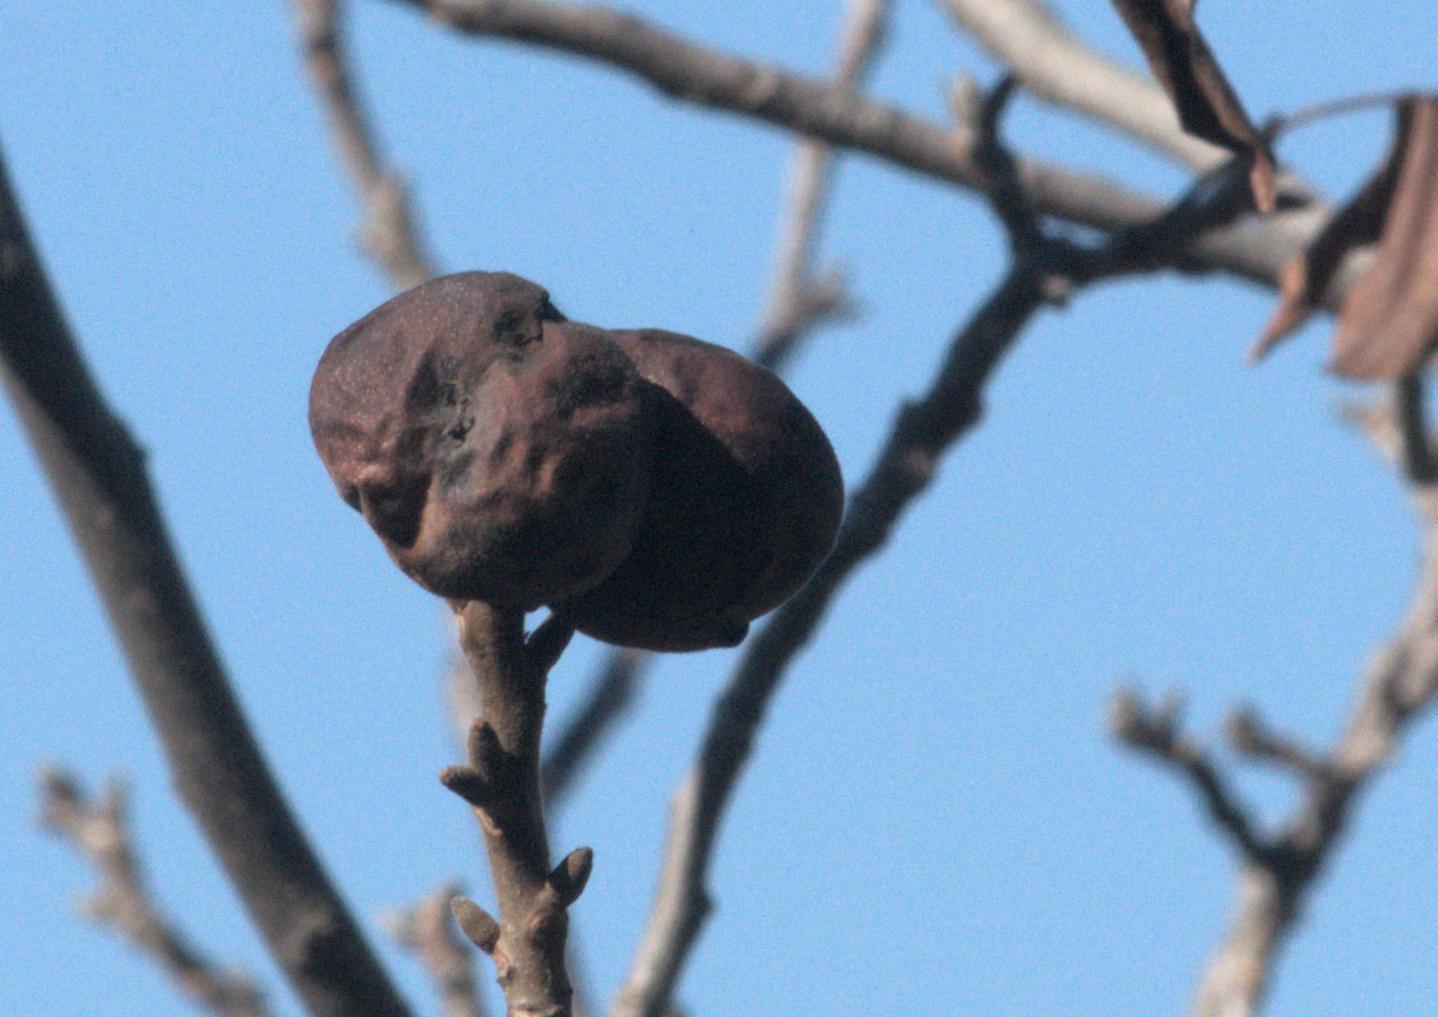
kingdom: Plantae
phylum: Tracheophyta
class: Magnoliopsida
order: Fagales
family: Juglandaceae
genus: Juglans
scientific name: Juglans regia
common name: Walnut
